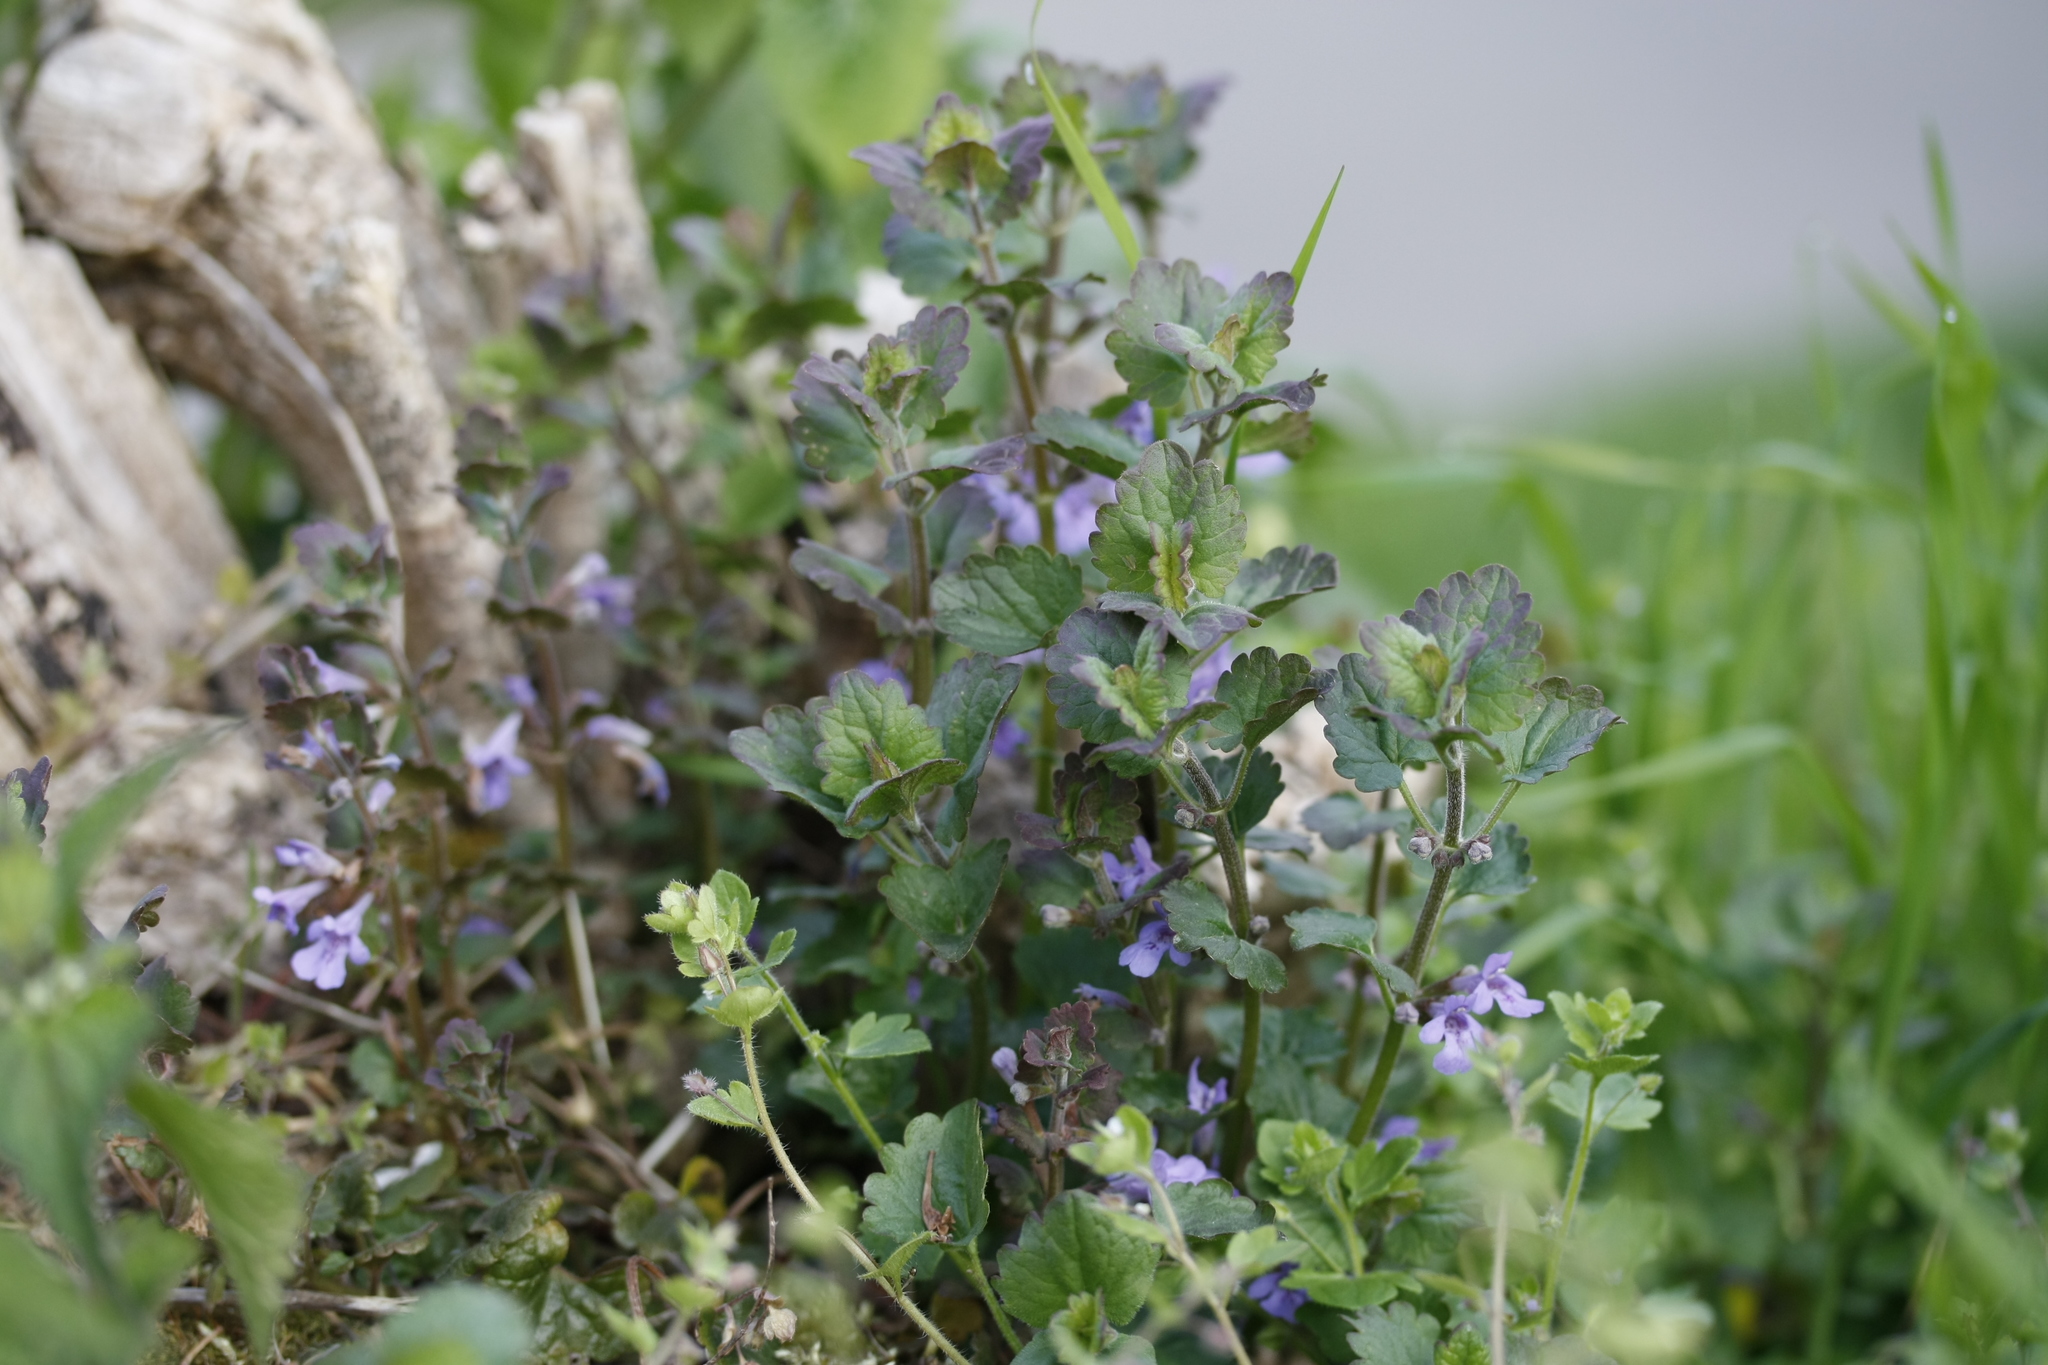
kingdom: Plantae
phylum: Tracheophyta
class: Magnoliopsida
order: Lamiales
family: Lamiaceae
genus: Glechoma
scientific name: Glechoma hederacea
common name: Ground ivy
